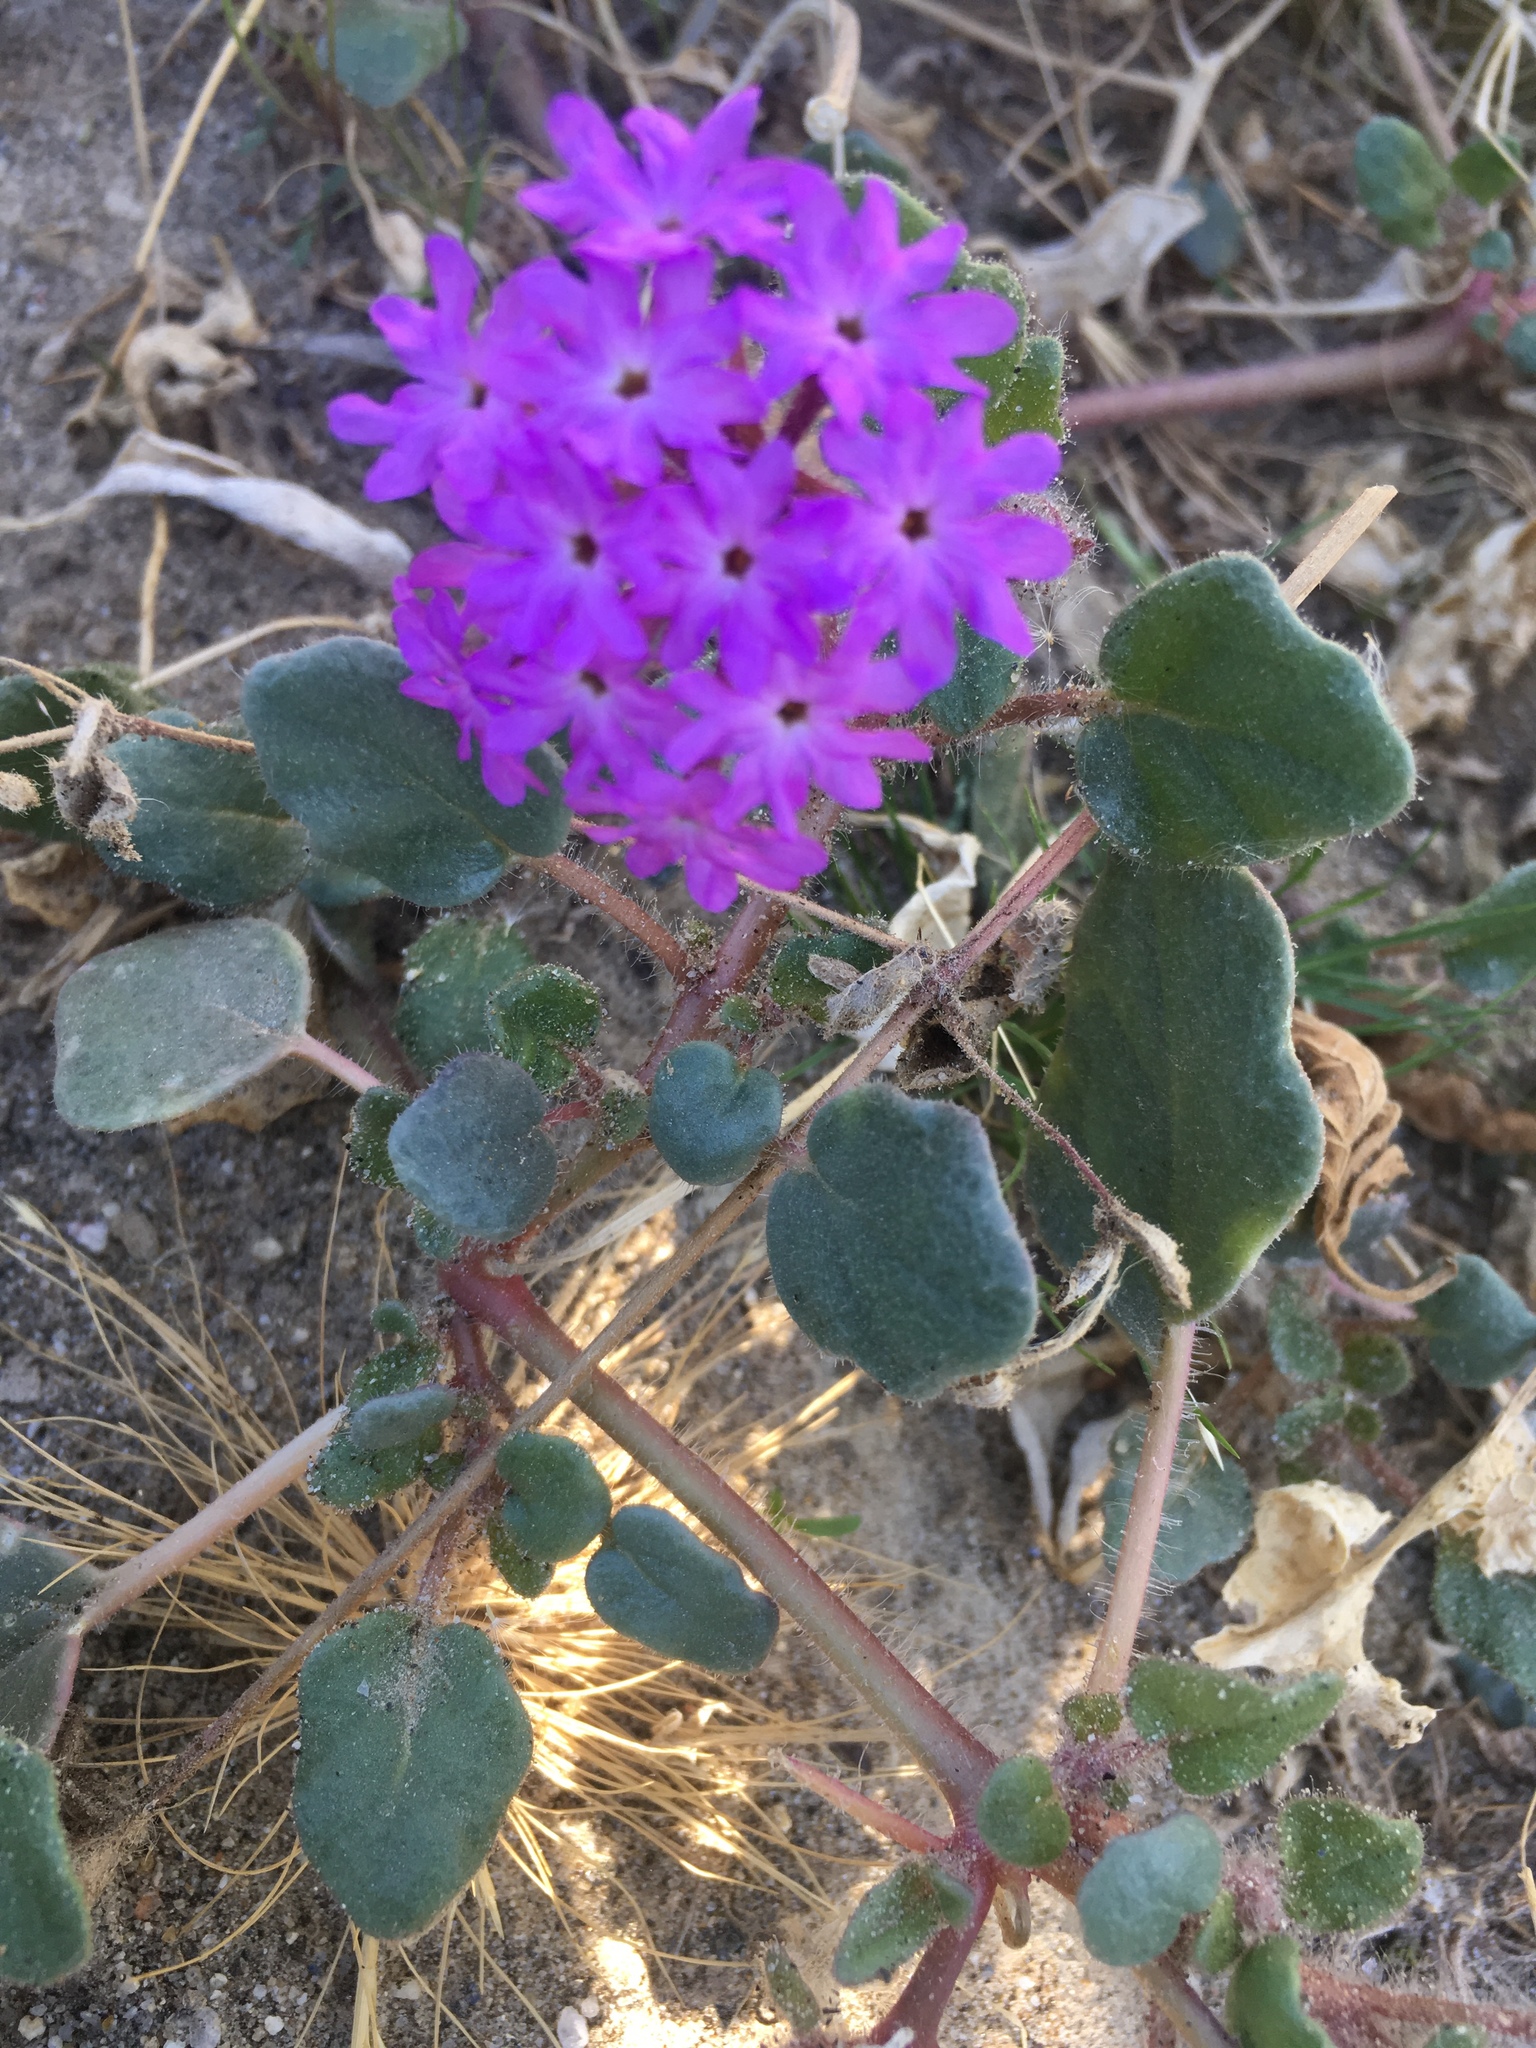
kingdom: Plantae
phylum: Tracheophyta
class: Magnoliopsida
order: Caryophyllales
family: Nyctaginaceae
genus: Abronia
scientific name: Abronia villosa
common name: Desert sand-verbena
